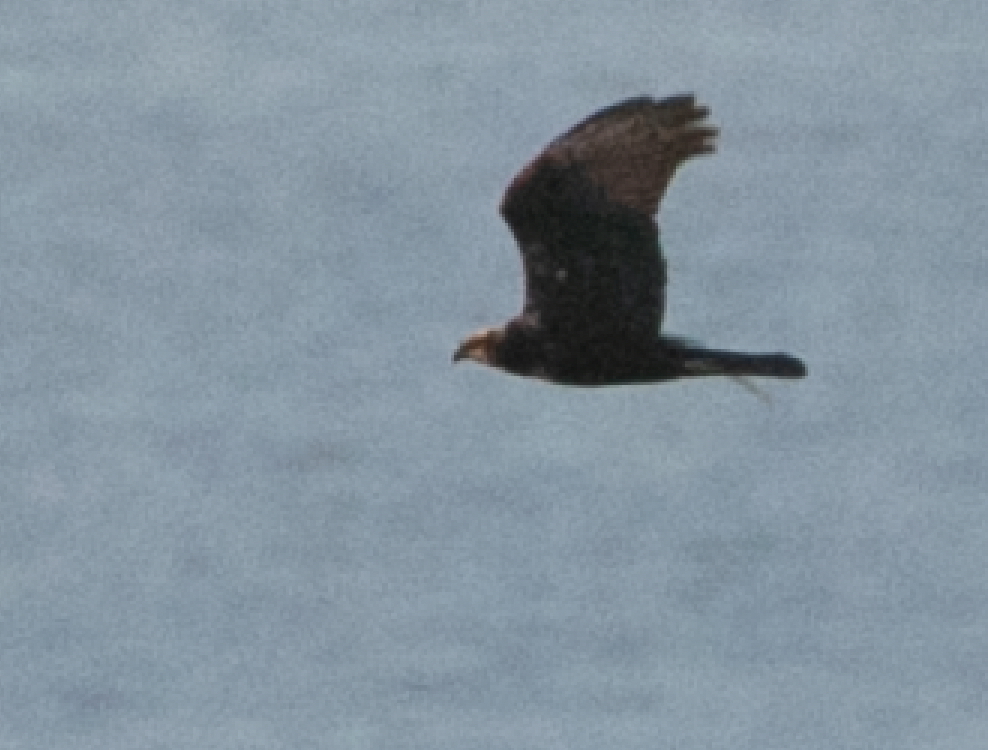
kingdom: Animalia
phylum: Chordata
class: Aves
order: Accipitriformes
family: Accipitridae
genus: Circus
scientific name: Circus aeruginosus
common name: Western marsh harrier
